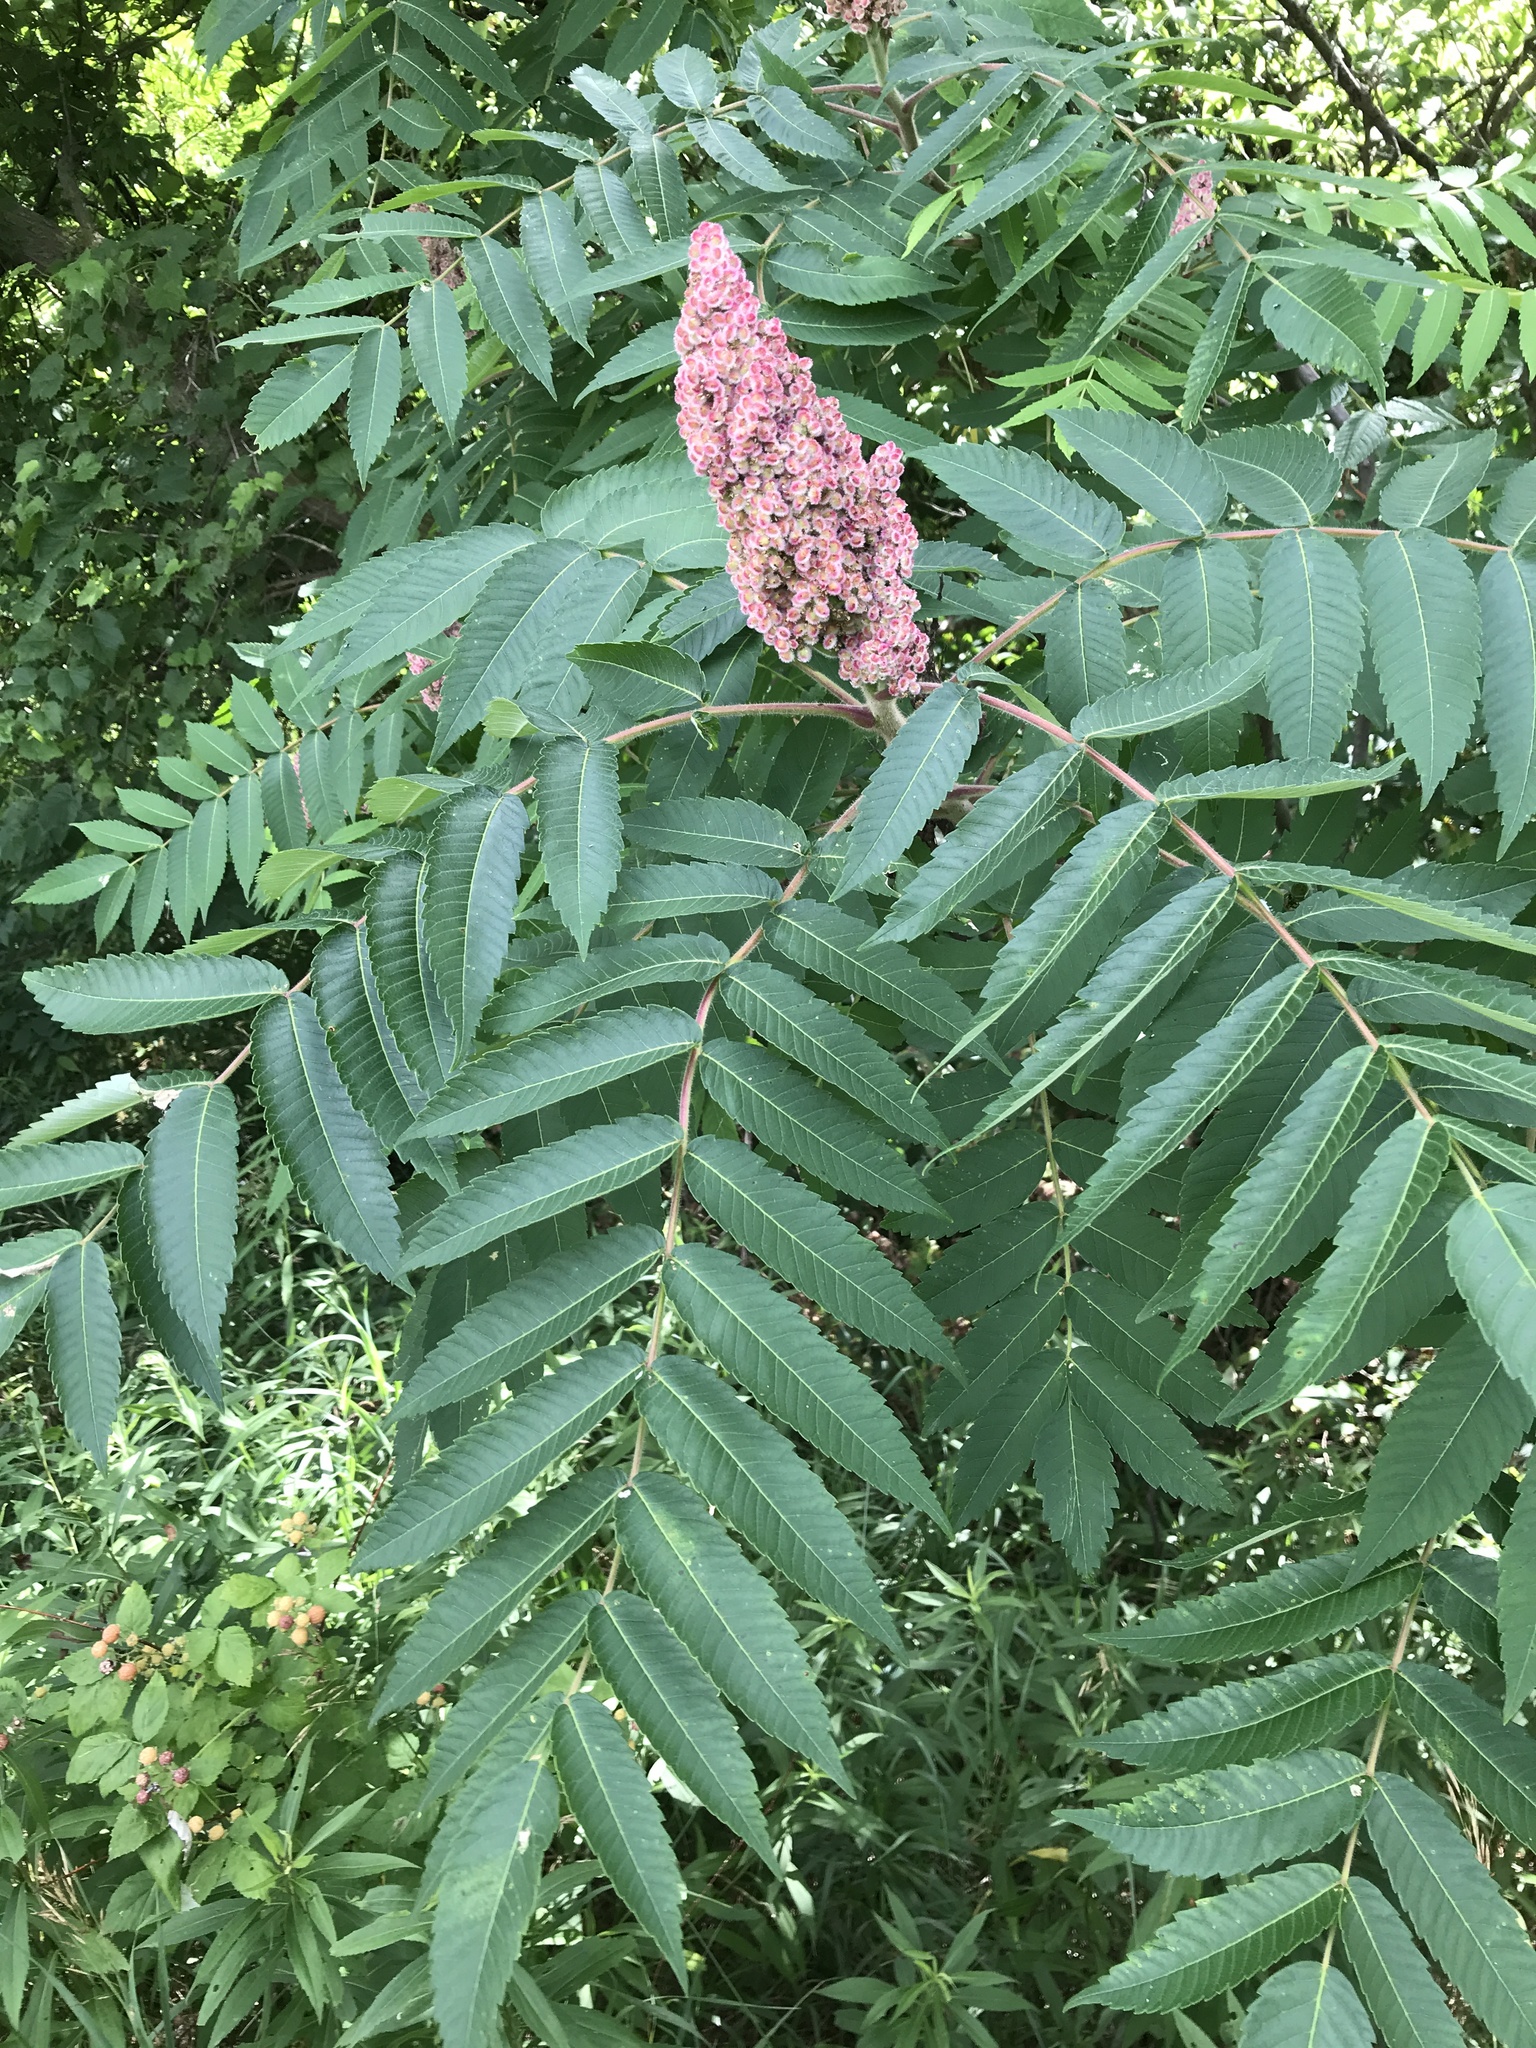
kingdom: Plantae
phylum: Tracheophyta
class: Magnoliopsida
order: Sapindales
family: Anacardiaceae
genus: Rhus
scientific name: Rhus typhina
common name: Staghorn sumac
